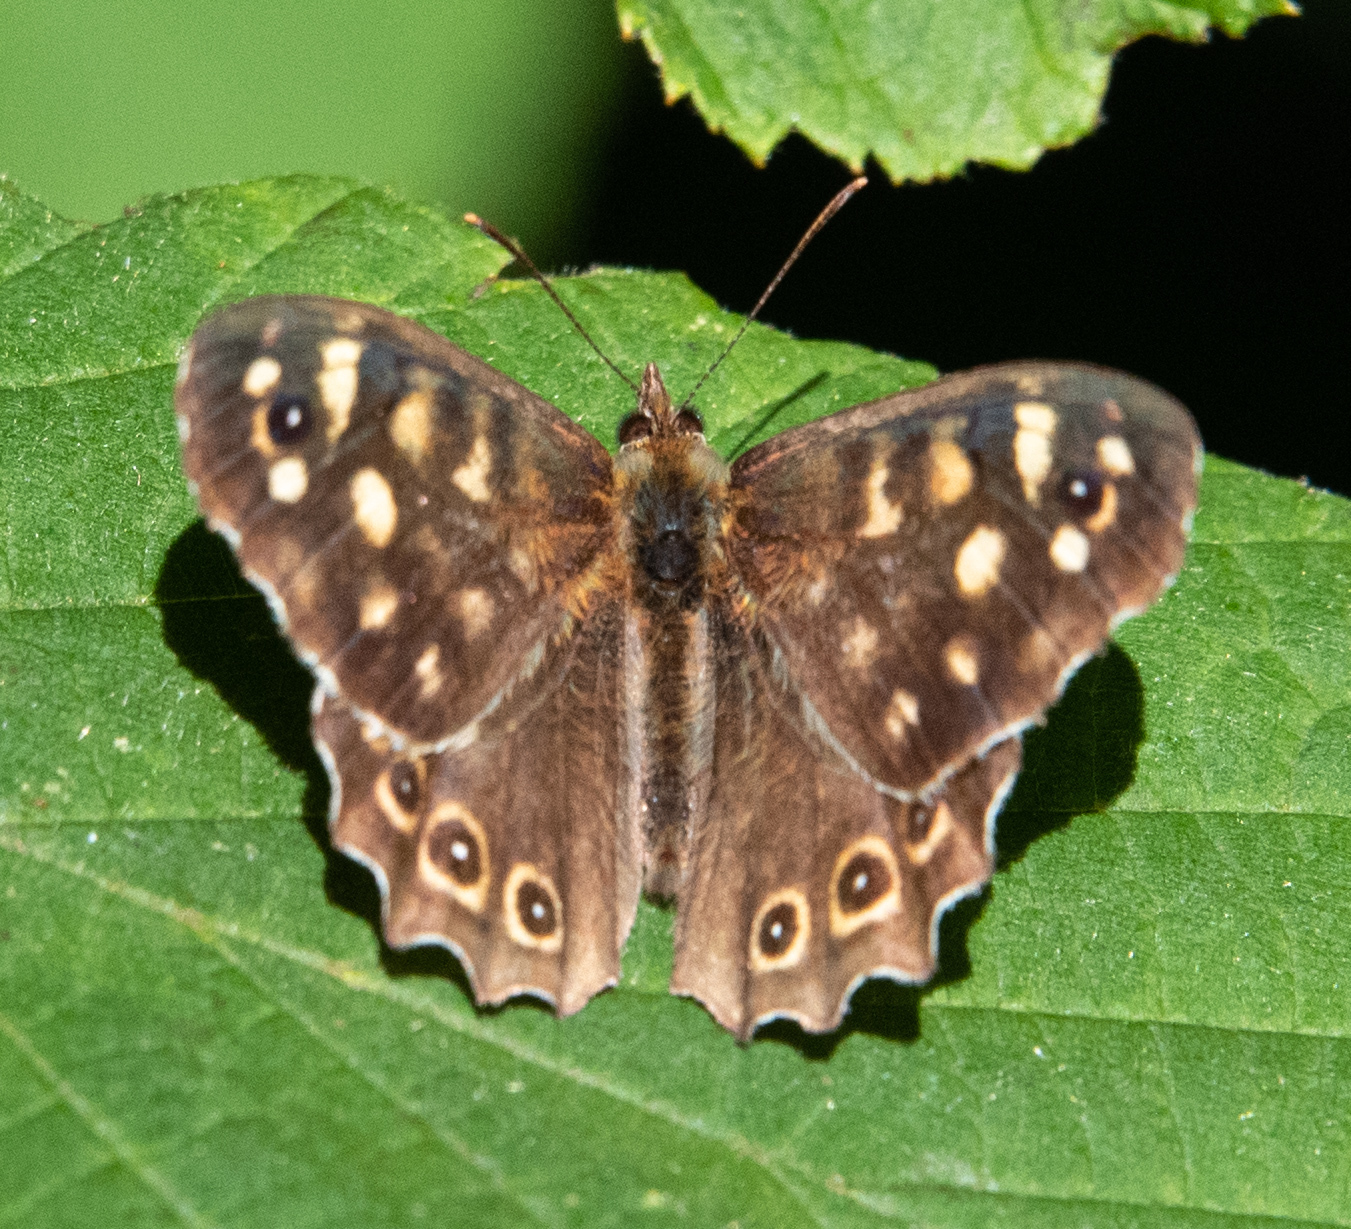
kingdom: Animalia
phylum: Arthropoda
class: Insecta
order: Lepidoptera
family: Nymphalidae
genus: Pararge
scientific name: Pararge aegeria
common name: Speckled wood
